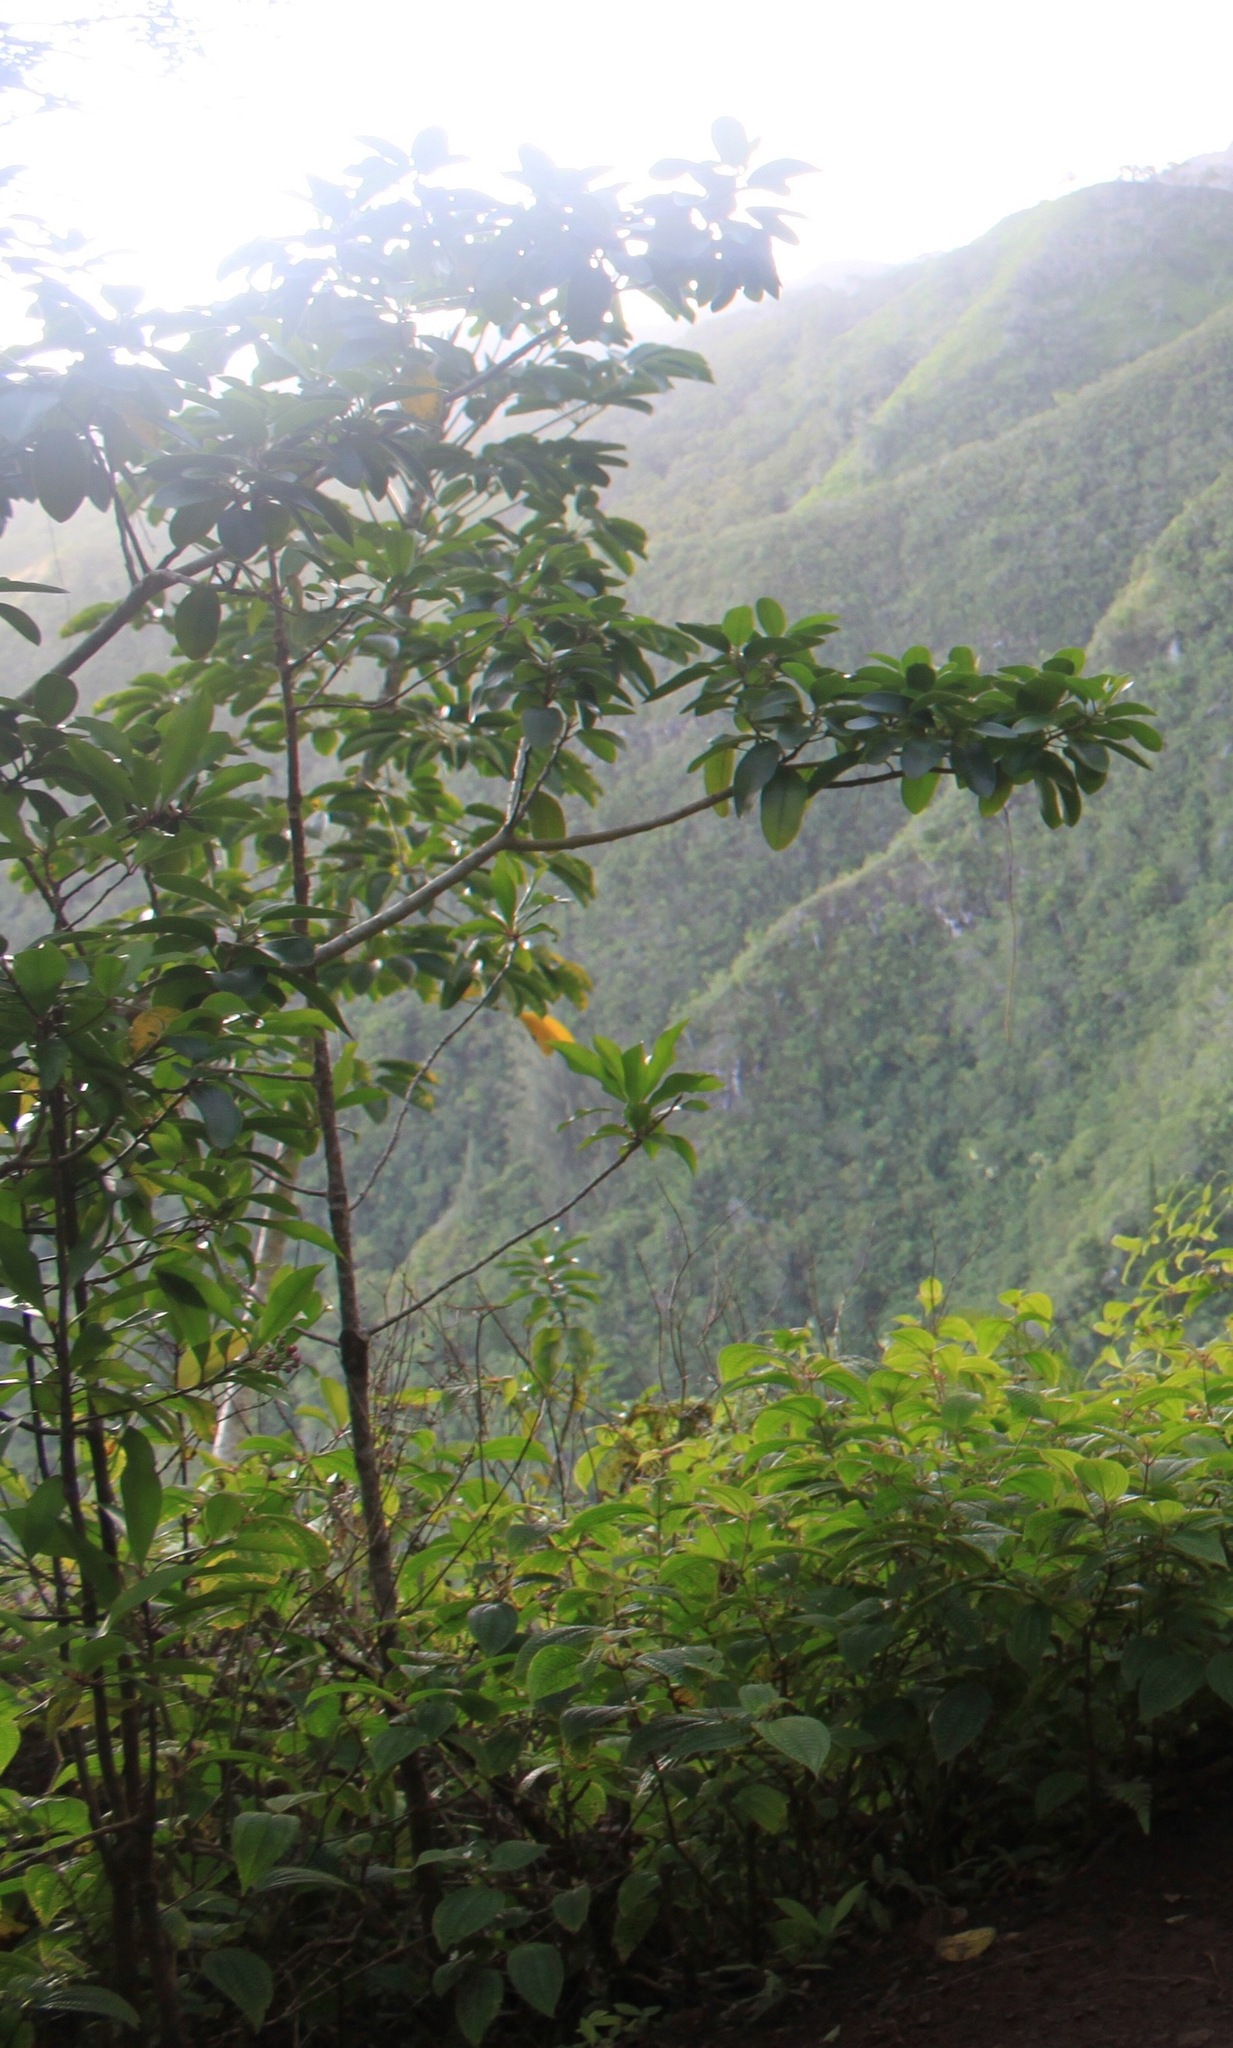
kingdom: Plantae
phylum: Tracheophyta
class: Magnoliopsida
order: Apiales
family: Araliaceae
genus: Heptapleurum
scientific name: Heptapleurum actinophyllum
